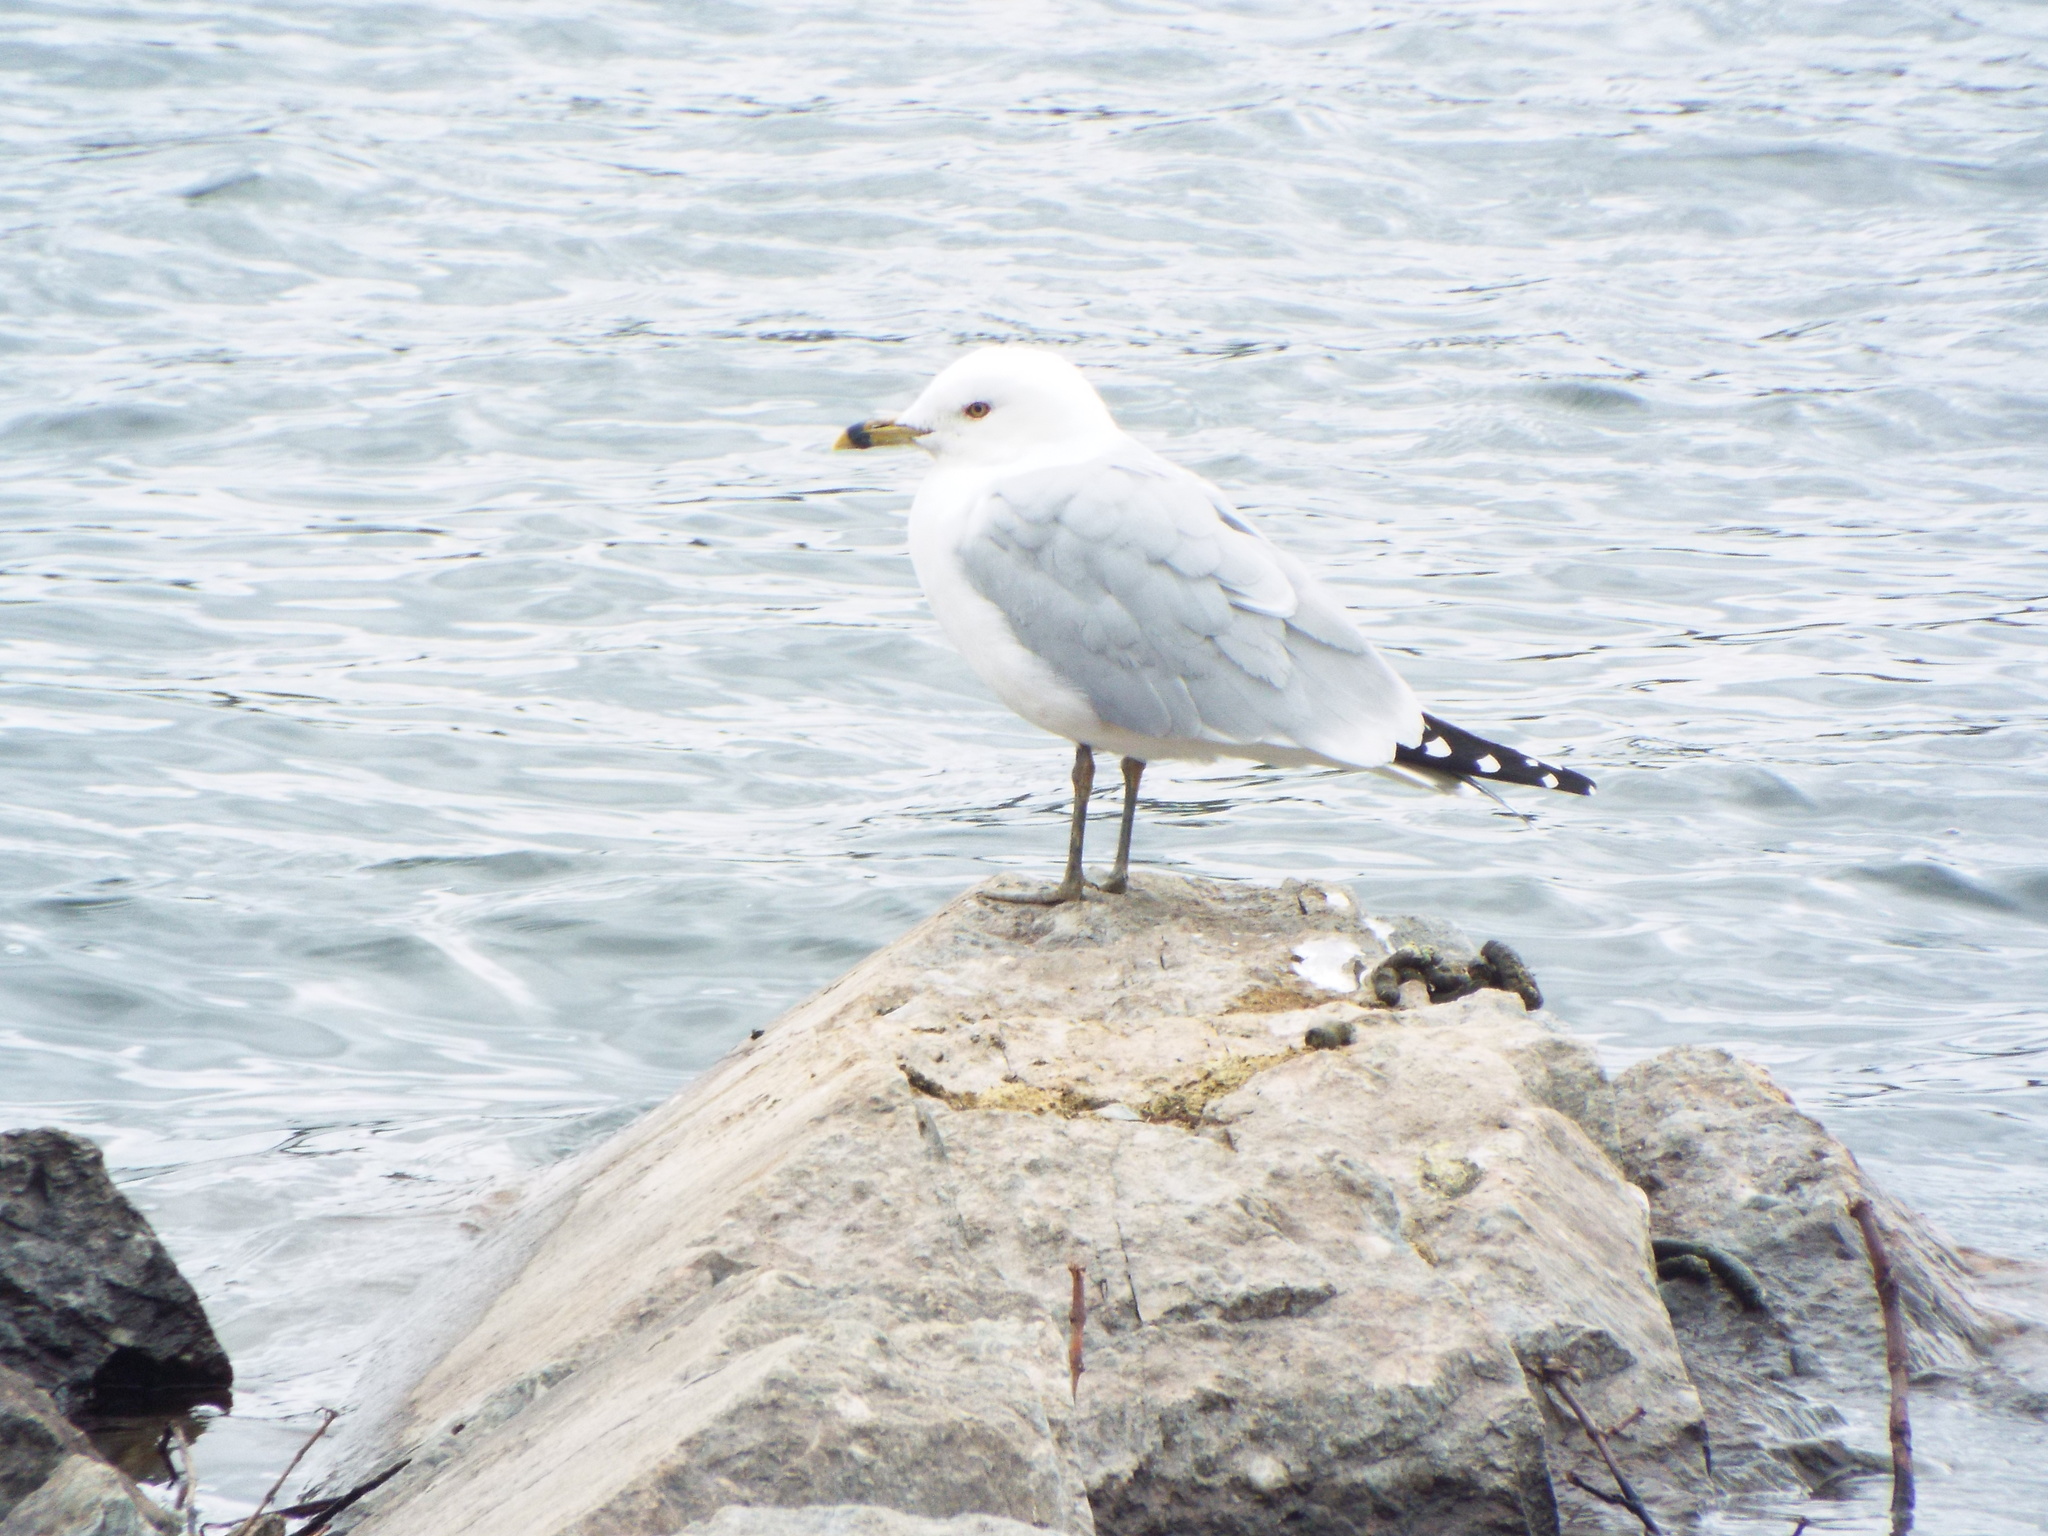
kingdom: Animalia
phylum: Chordata
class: Aves
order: Charadriiformes
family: Laridae
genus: Larus
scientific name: Larus delawarensis
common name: Ring-billed gull
